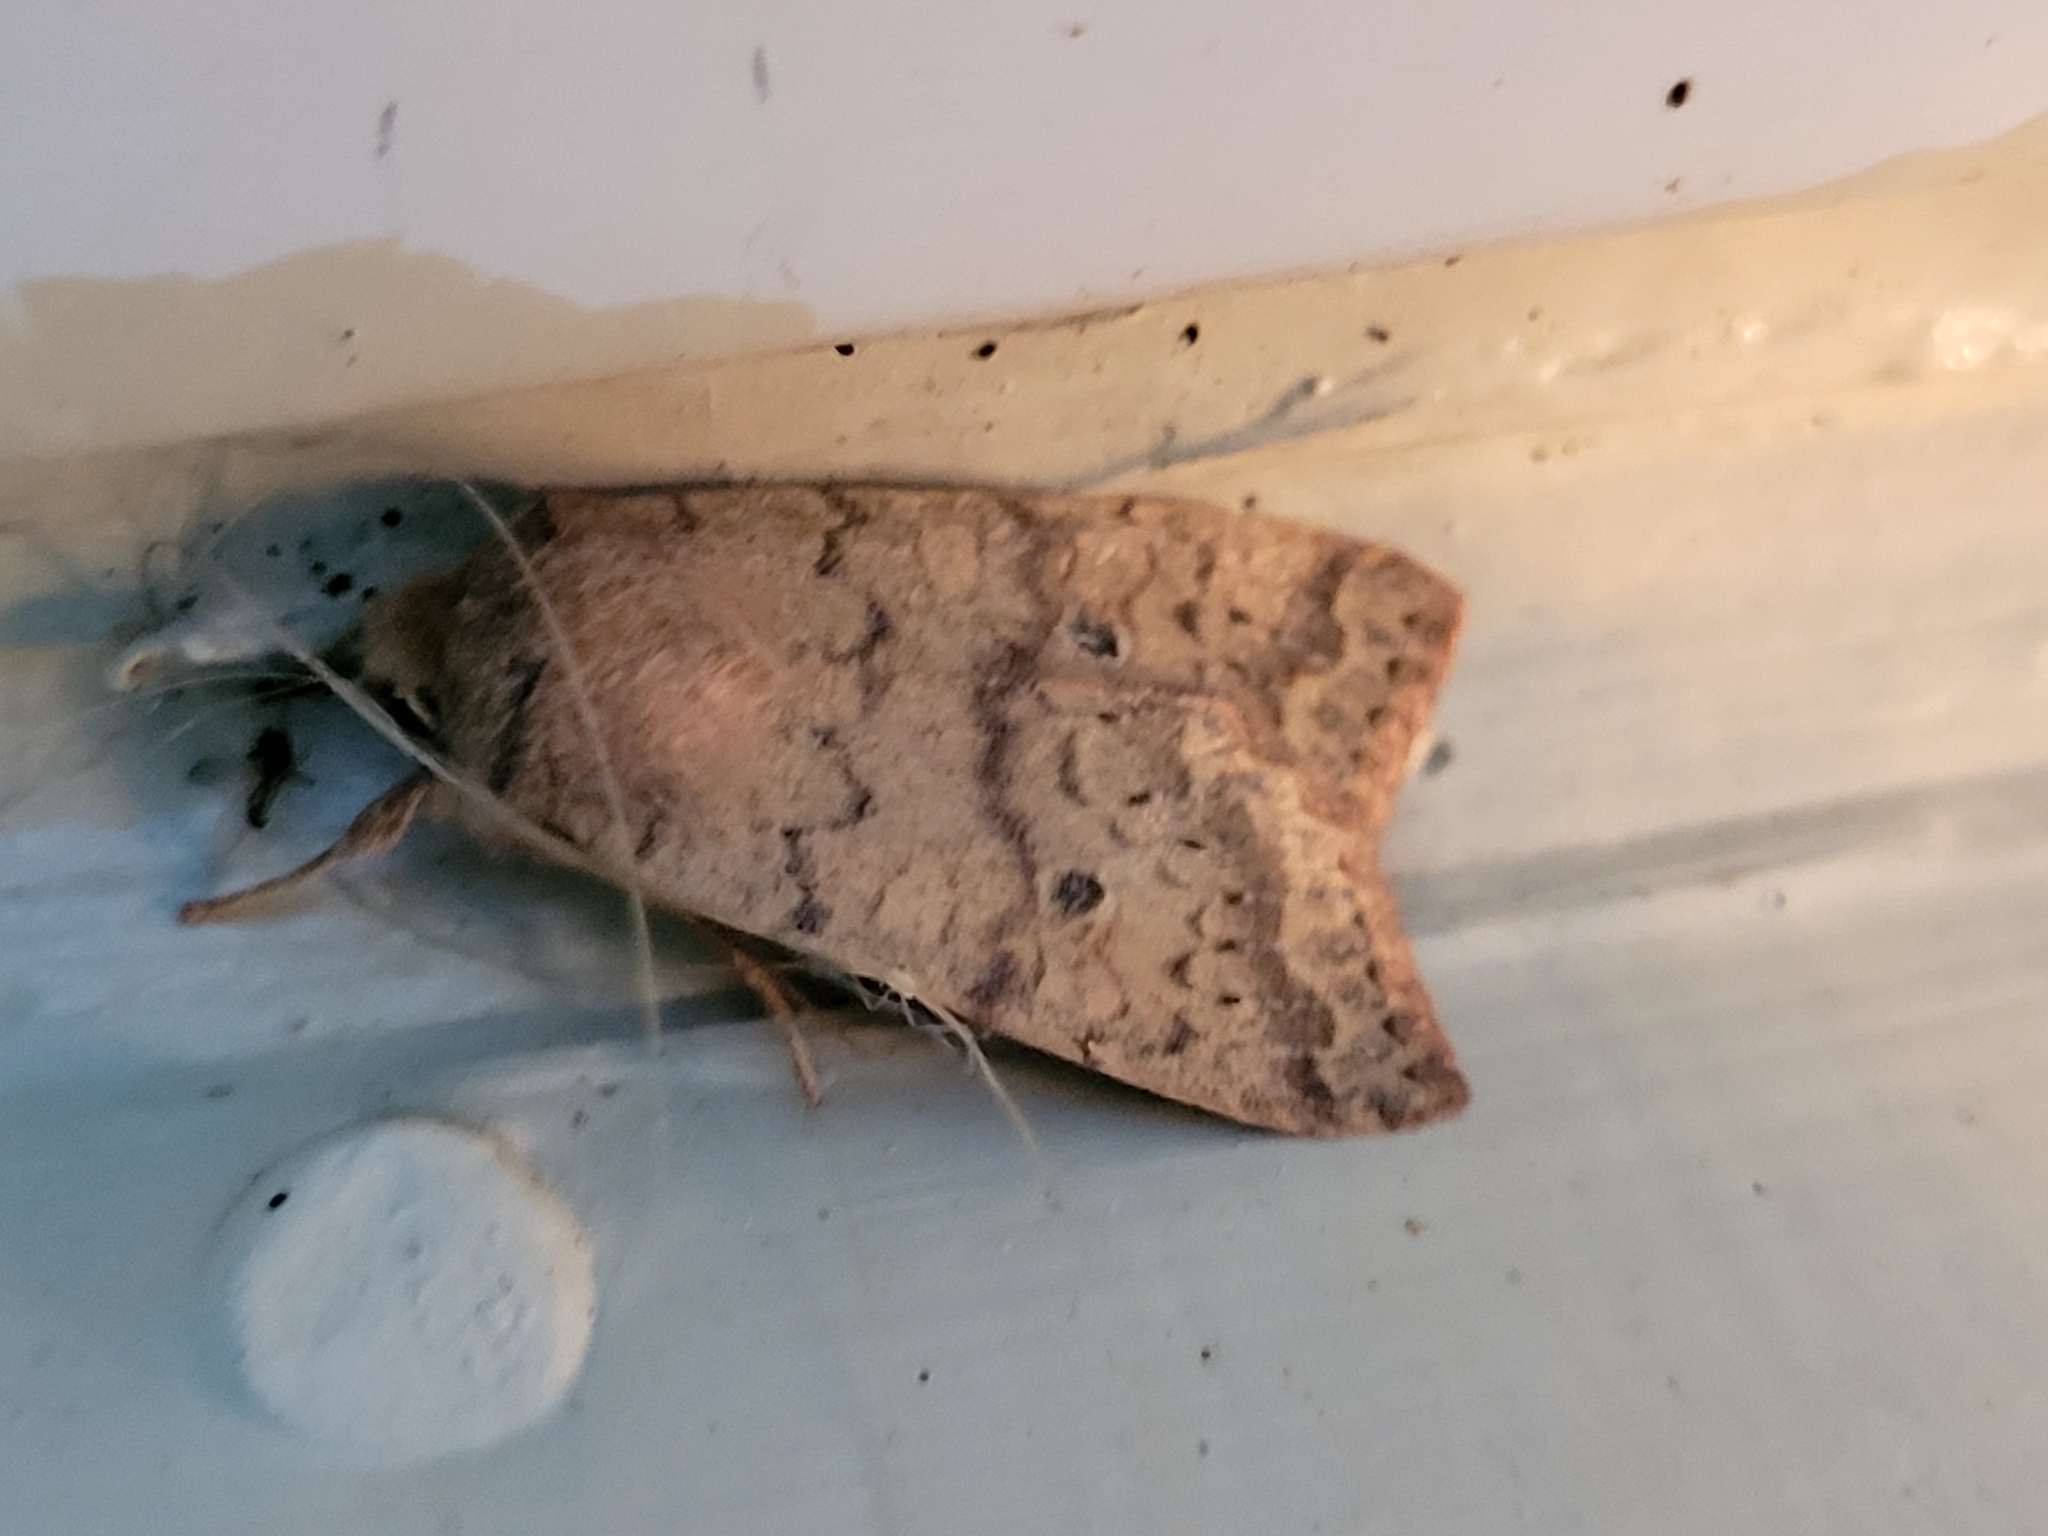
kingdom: Animalia
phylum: Arthropoda
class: Insecta
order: Lepidoptera
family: Noctuidae
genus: Agrochola
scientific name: Agrochola bicolorago
